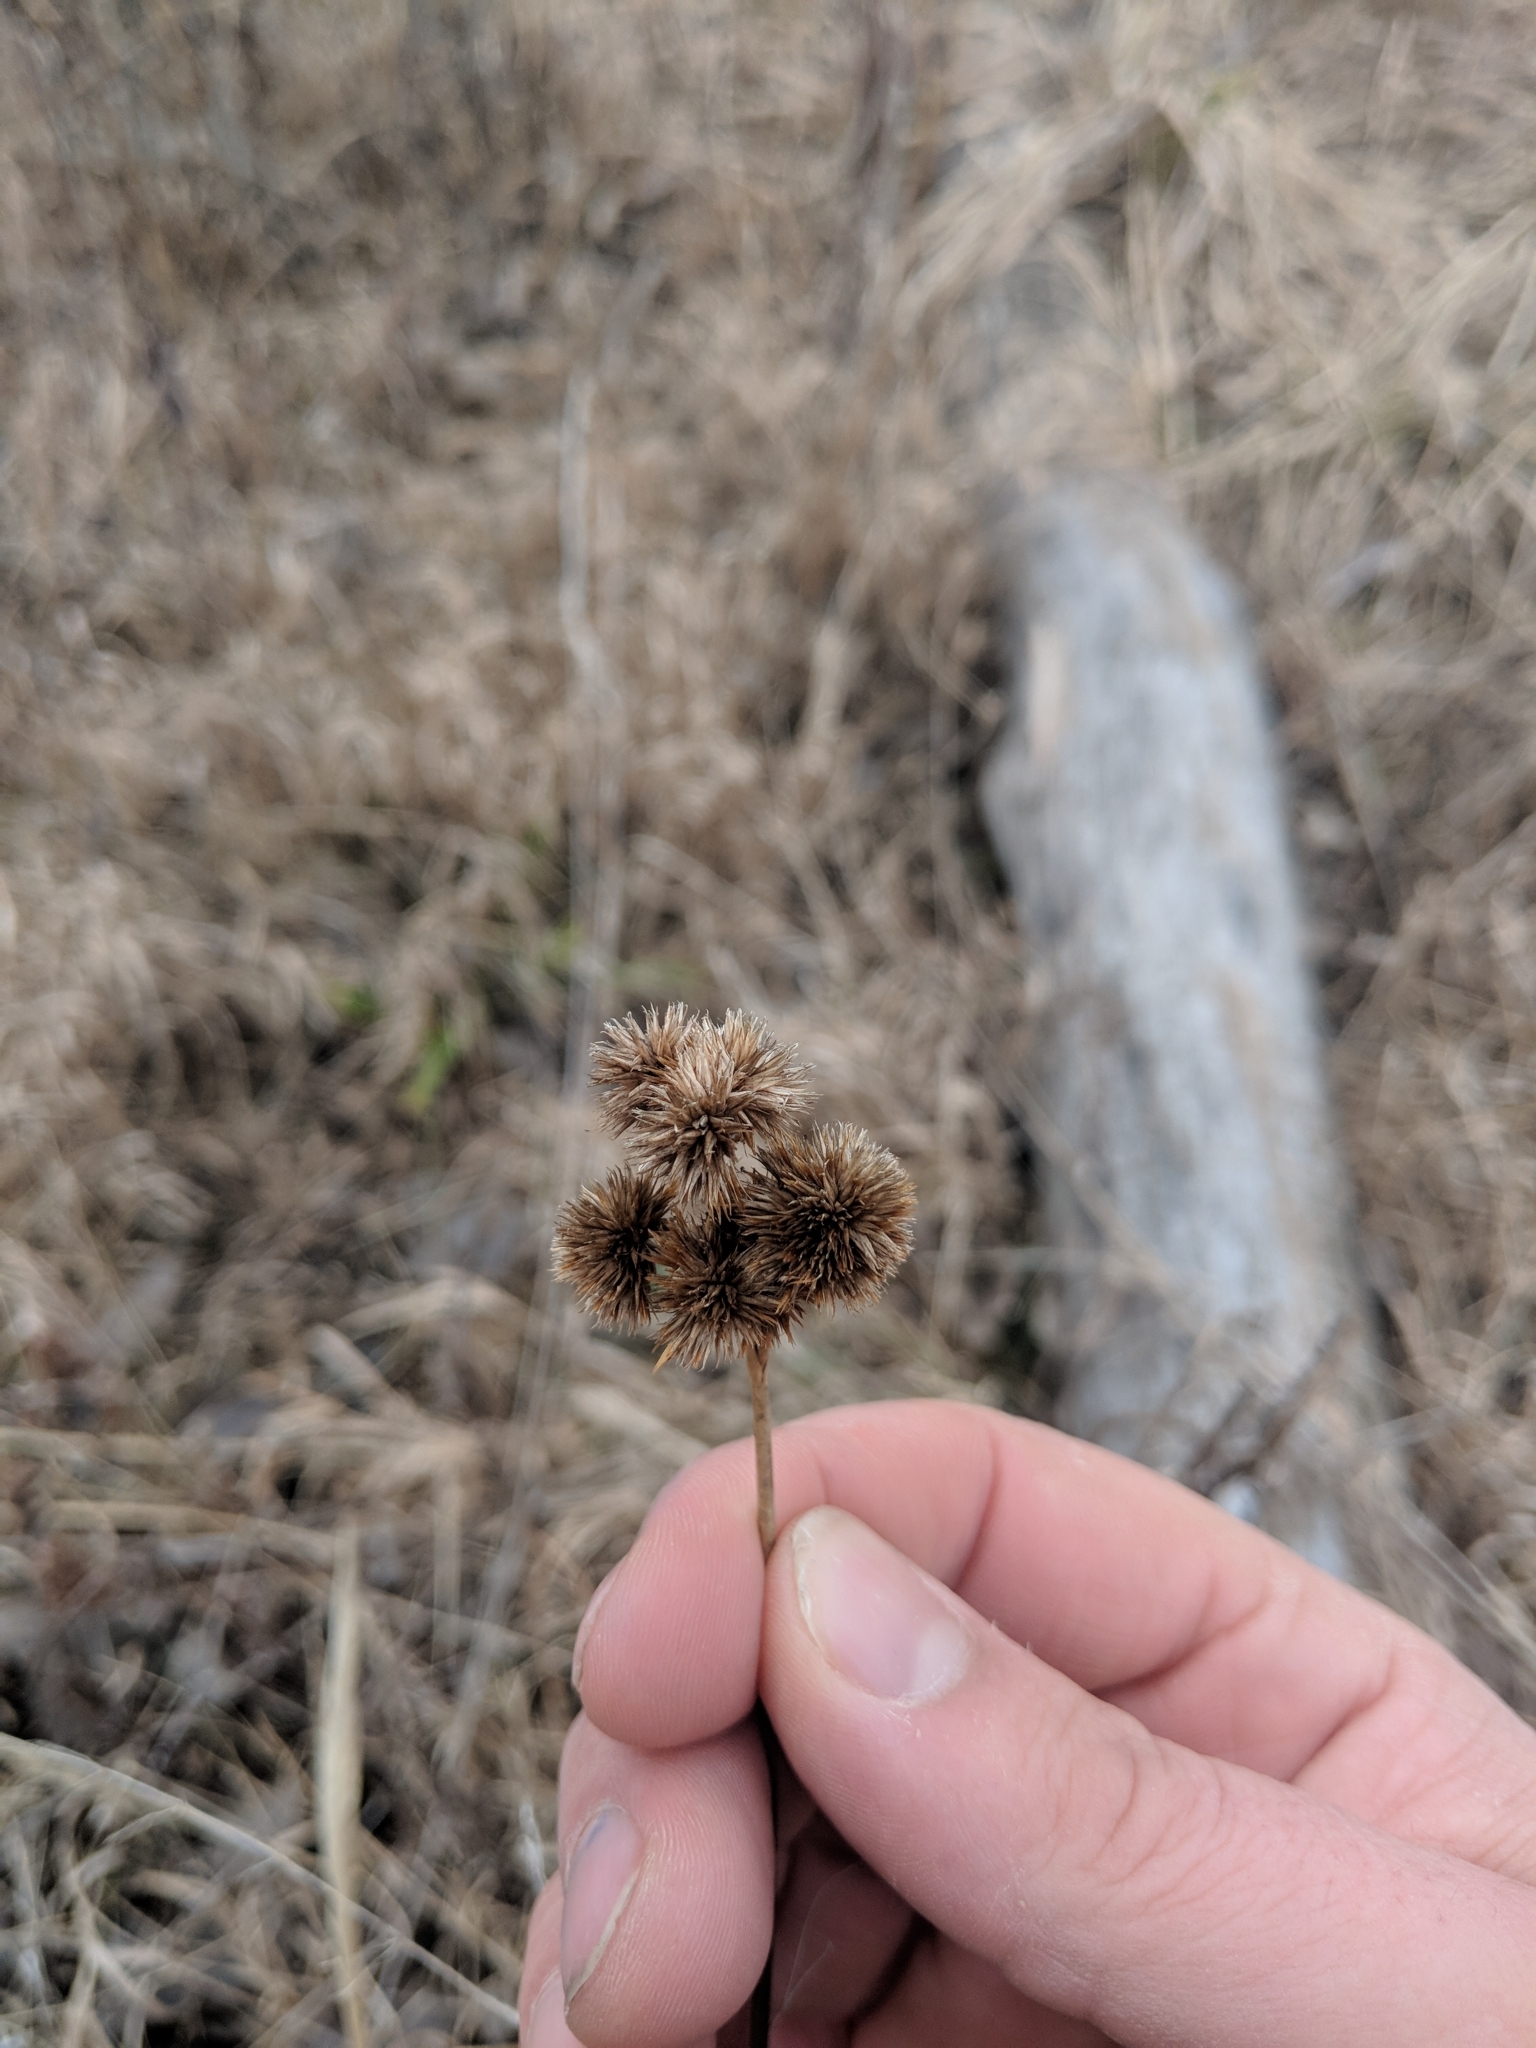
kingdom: Plantae
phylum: Tracheophyta
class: Liliopsida
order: Poales
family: Juncaceae
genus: Juncus
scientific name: Juncus torreyi
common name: Torrey's rush
